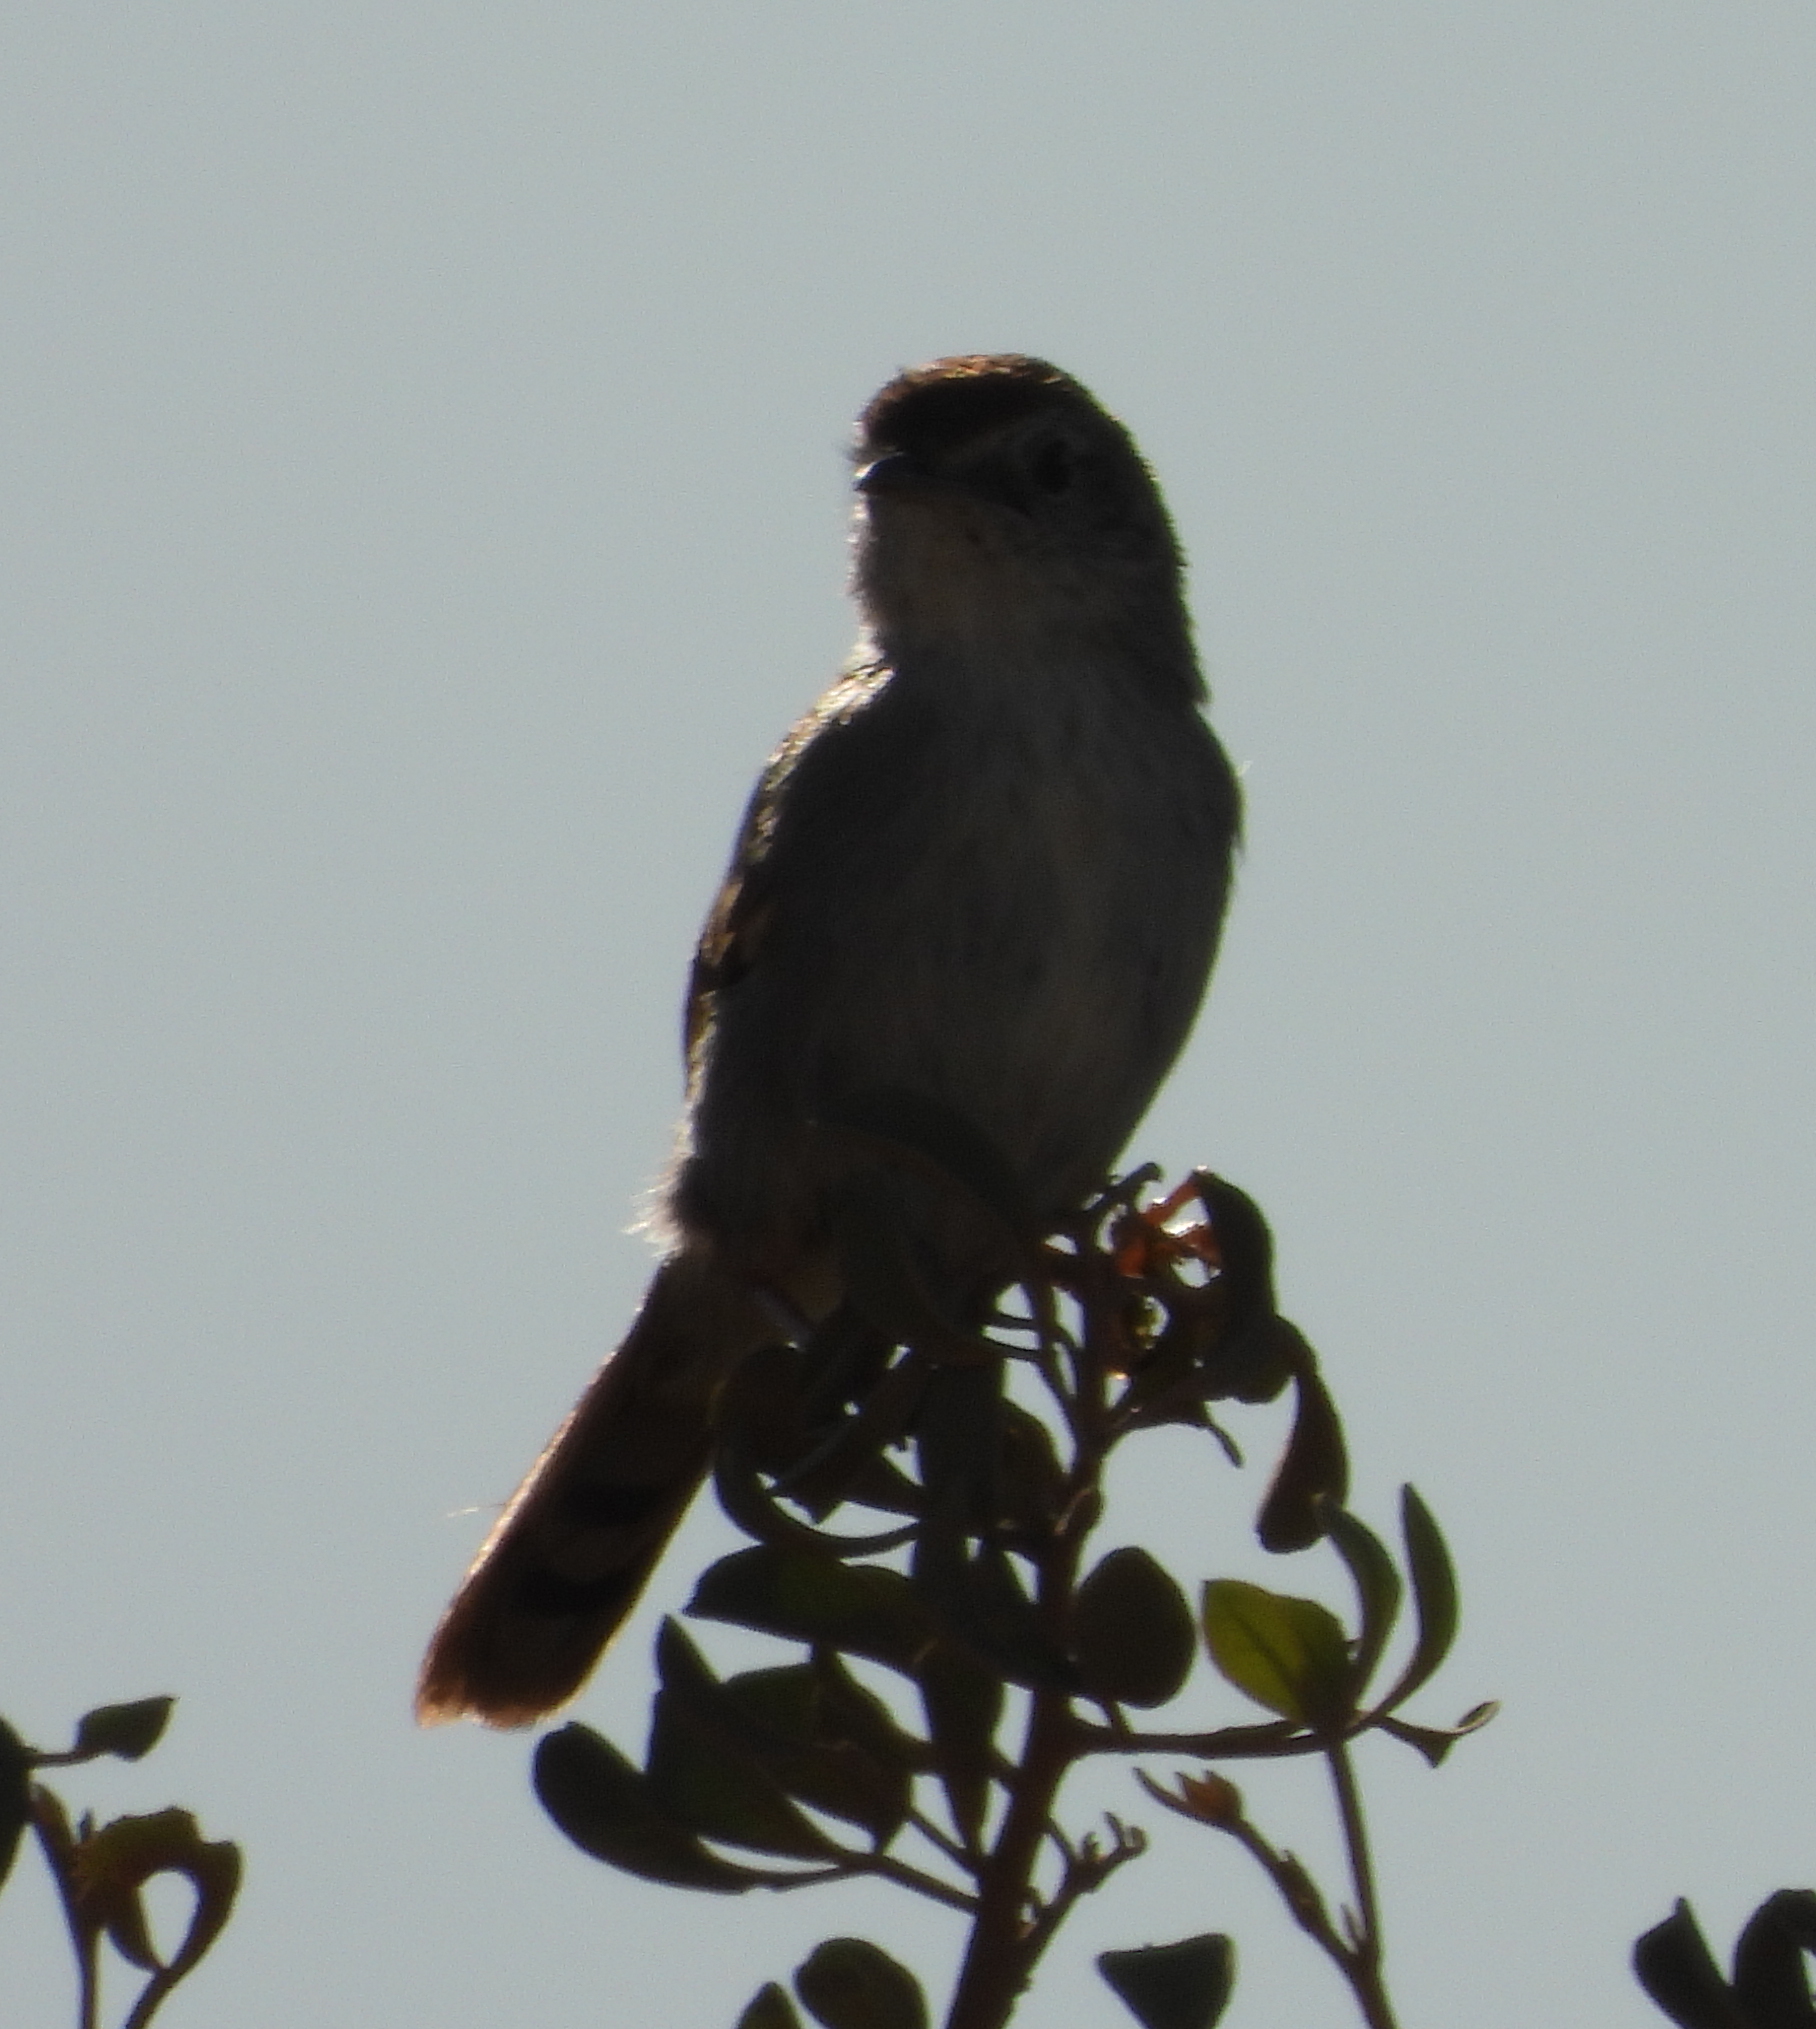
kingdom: Animalia
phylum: Chordata
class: Aves
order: Passeriformes
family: Cisticolidae
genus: Cisticola
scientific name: Cisticola subruficapilla
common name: Grey-backed cisticola
